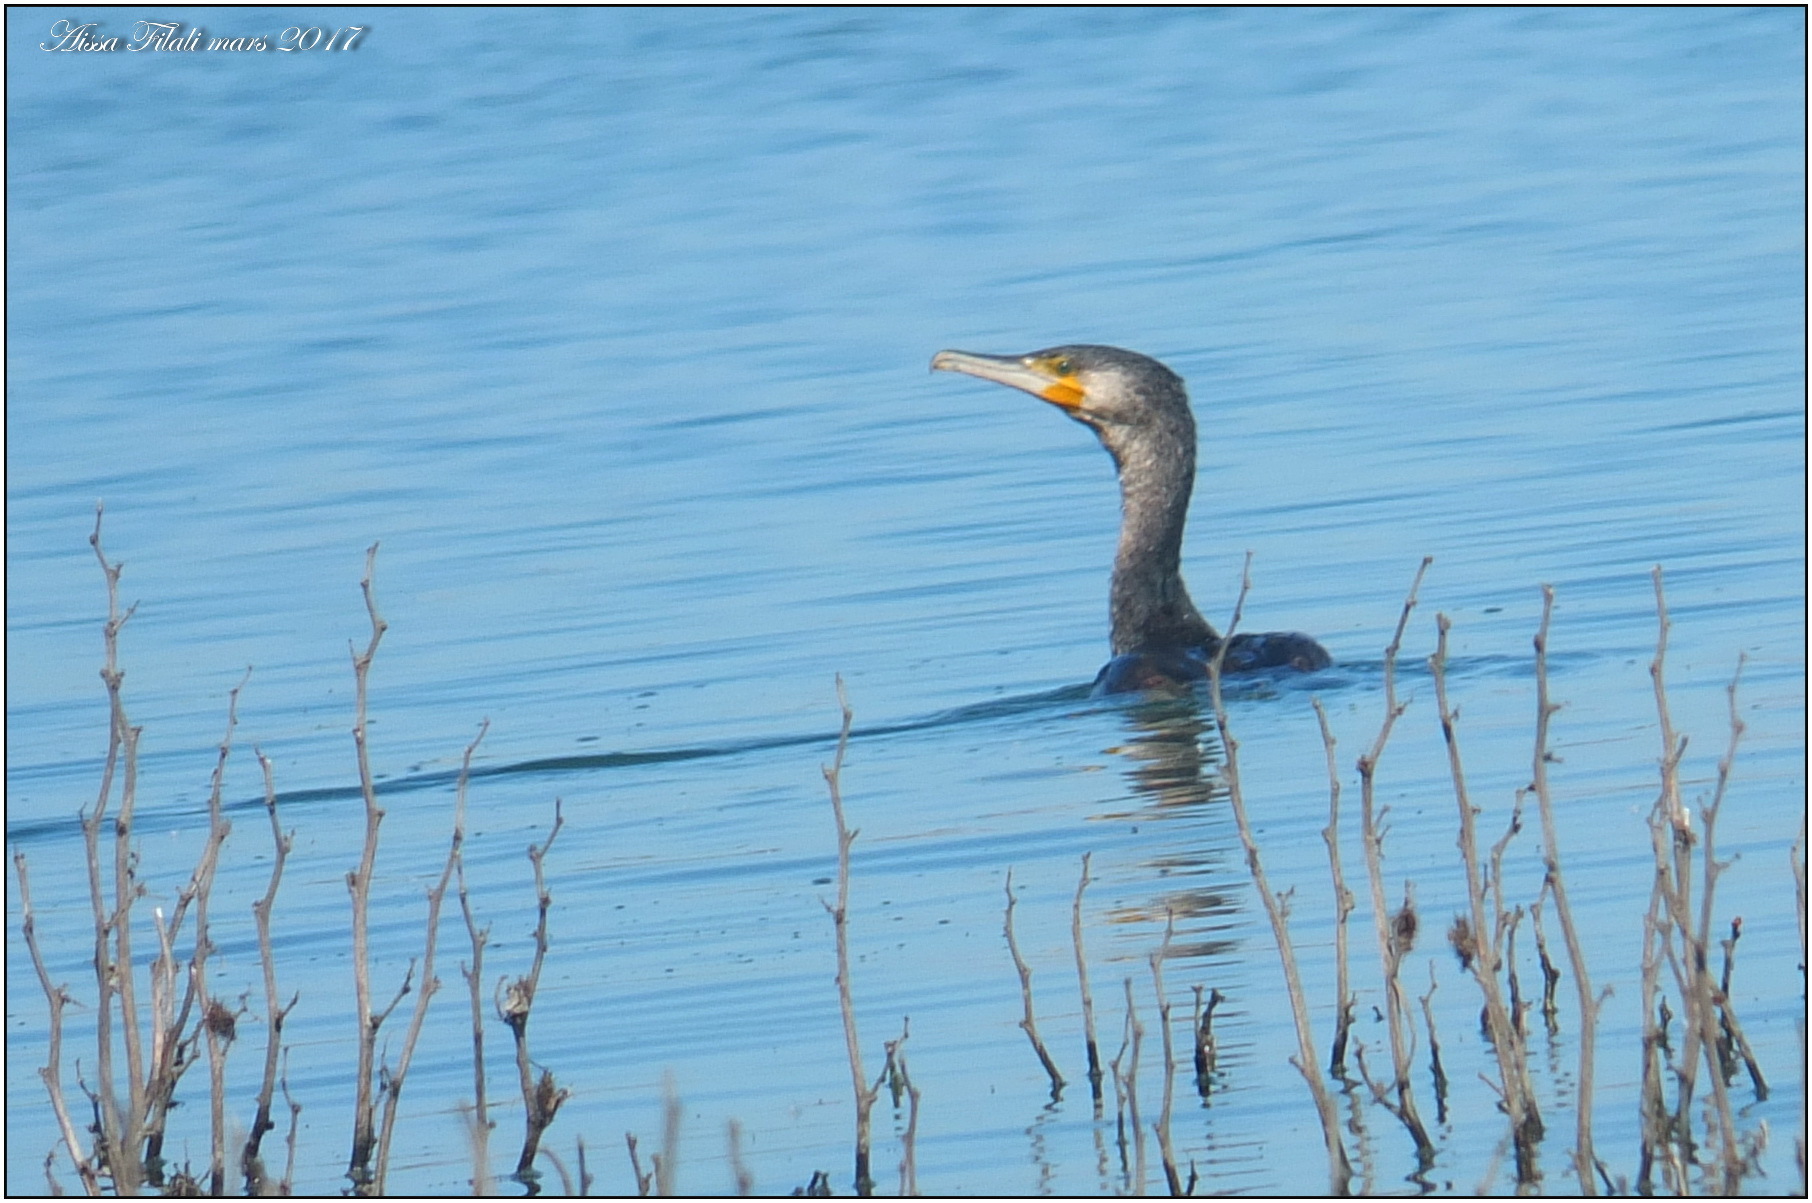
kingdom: Animalia
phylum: Chordata
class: Aves
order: Suliformes
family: Phalacrocoracidae
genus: Phalacrocorax
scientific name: Phalacrocorax carbo
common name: Great cormorant
